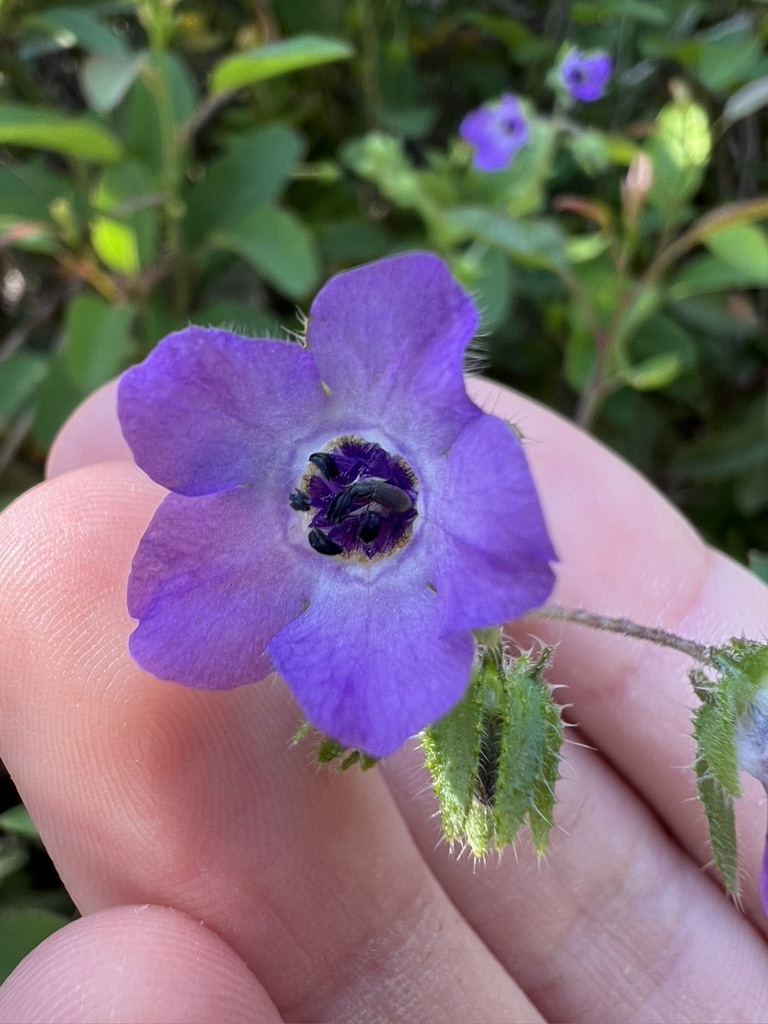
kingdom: Plantae
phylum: Tracheophyta
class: Magnoliopsida
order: Boraginales
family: Hydrophyllaceae
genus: Pholistoma
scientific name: Pholistoma auritum
